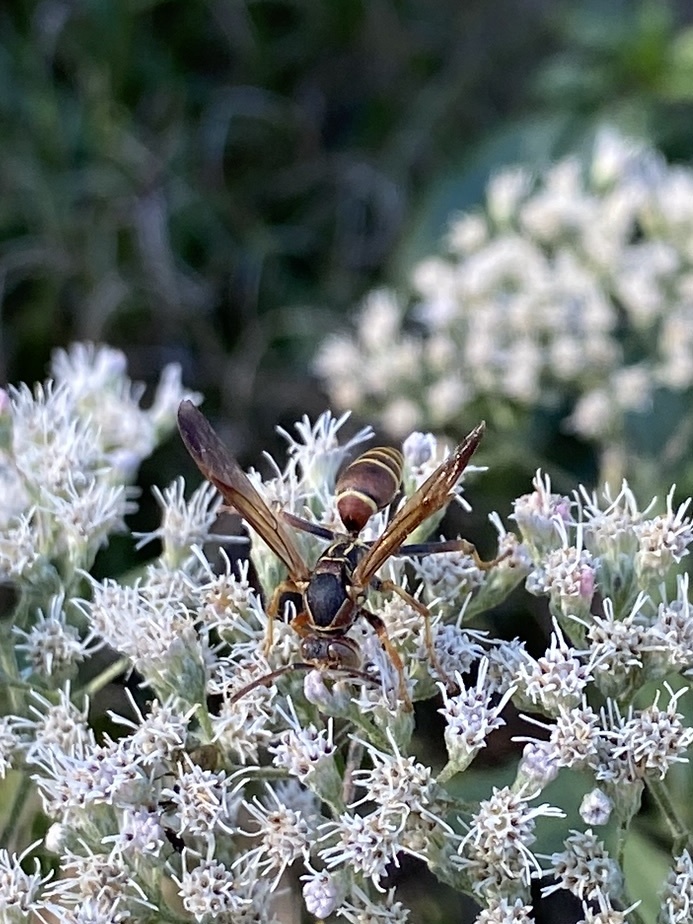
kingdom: Animalia
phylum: Arthropoda
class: Insecta
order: Hymenoptera
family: Eumenidae
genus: Polistes
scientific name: Polistes dorsalis
